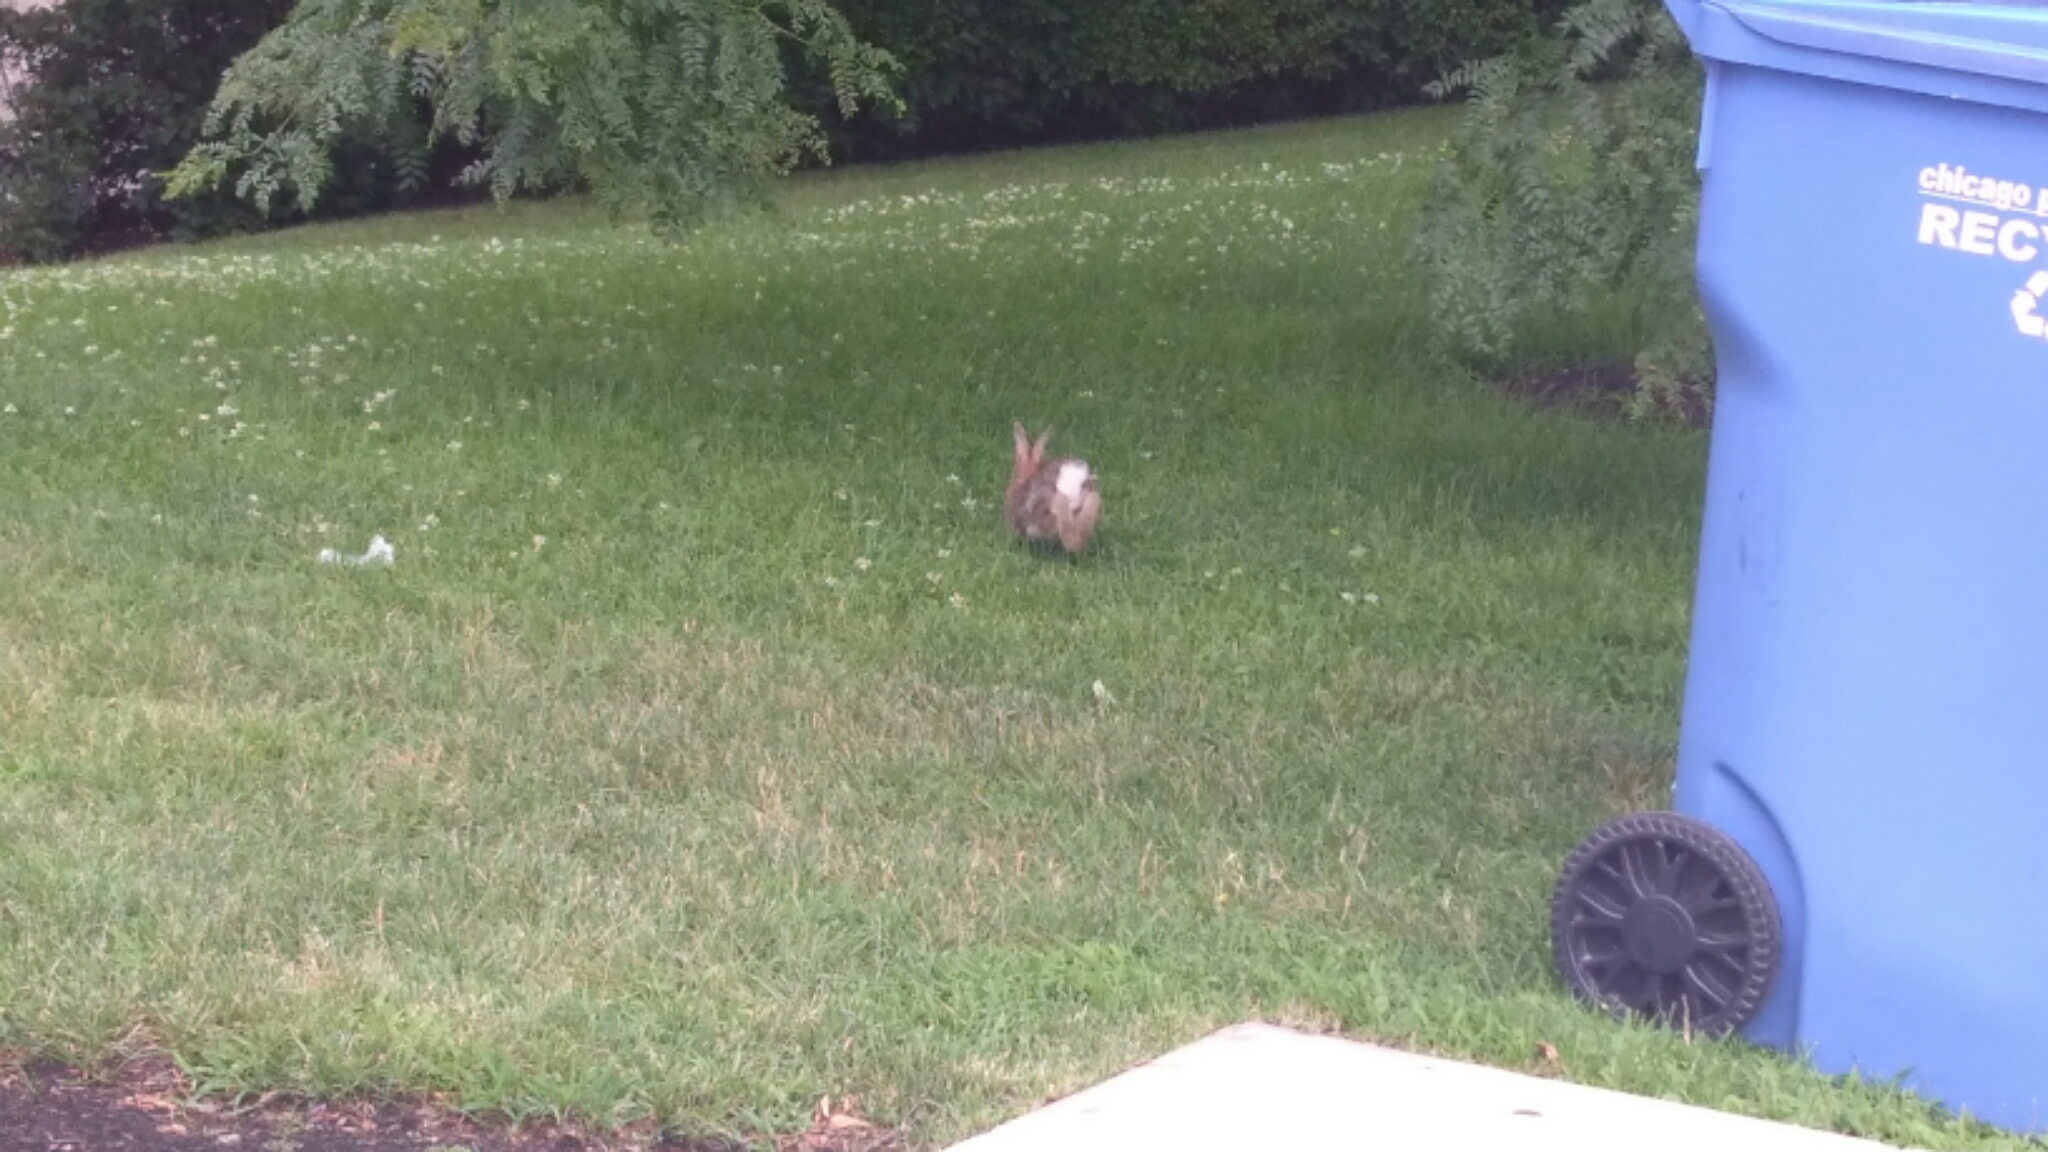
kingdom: Animalia
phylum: Chordata
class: Mammalia
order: Lagomorpha
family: Leporidae
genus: Sylvilagus
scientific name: Sylvilagus floridanus
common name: Eastern cottontail
